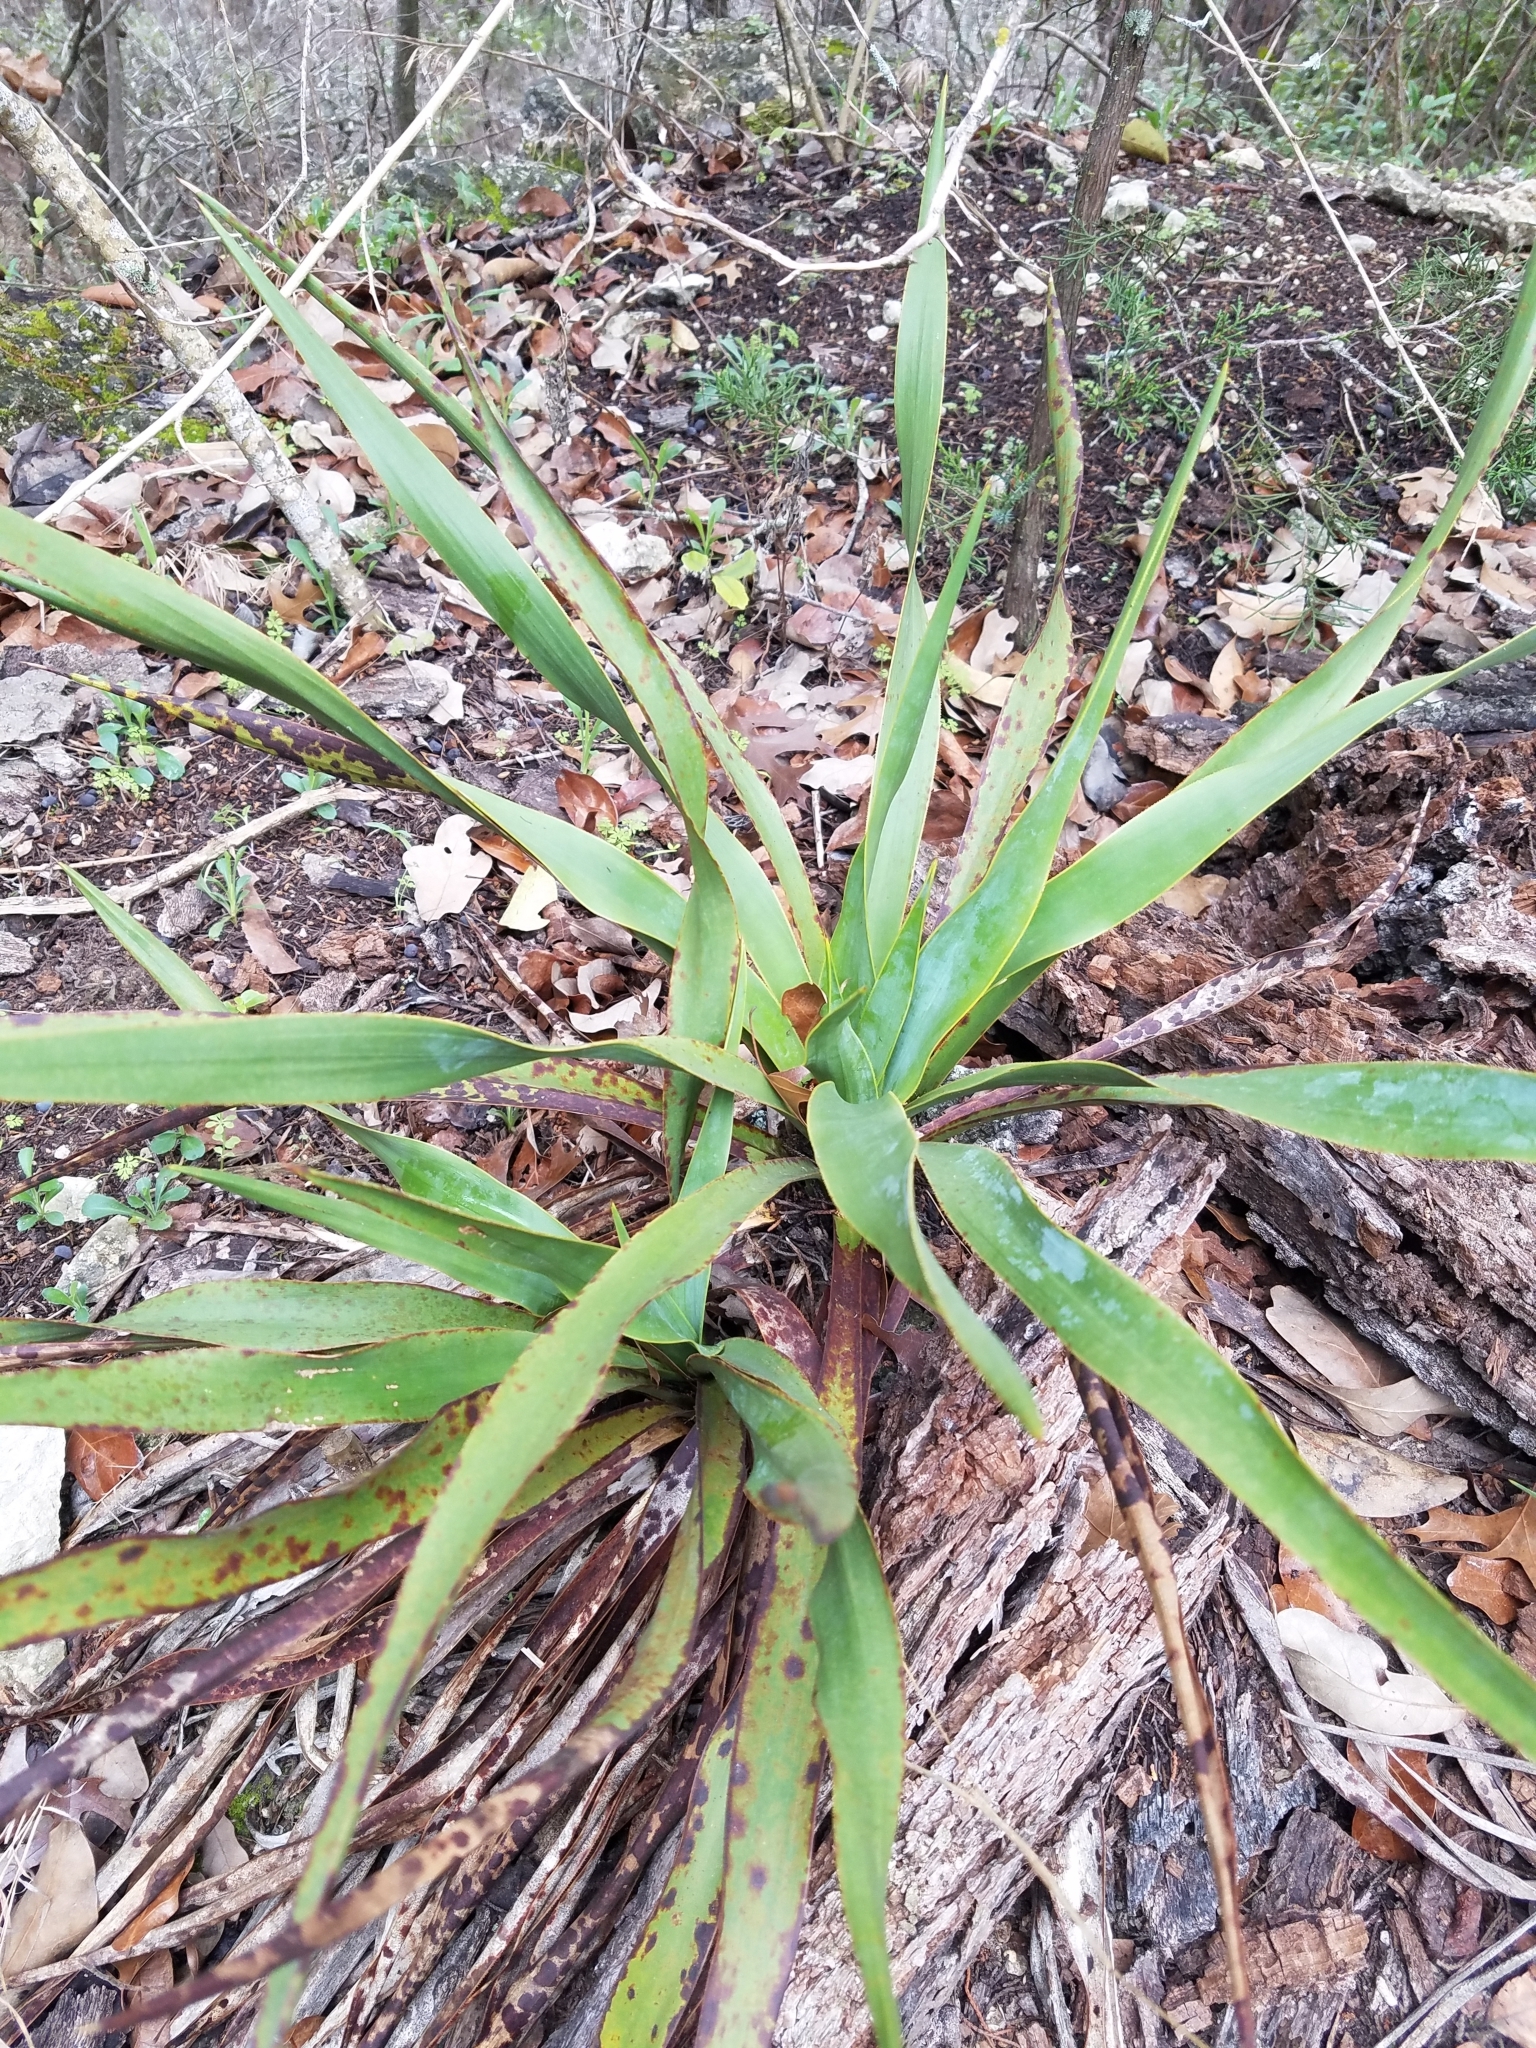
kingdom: Plantae
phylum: Tracheophyta
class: Liliopsida
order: Asparagales
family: Asparagaceae
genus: Yucca
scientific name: Yucca rupicola
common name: Twisted-leaf spanish-dagger
